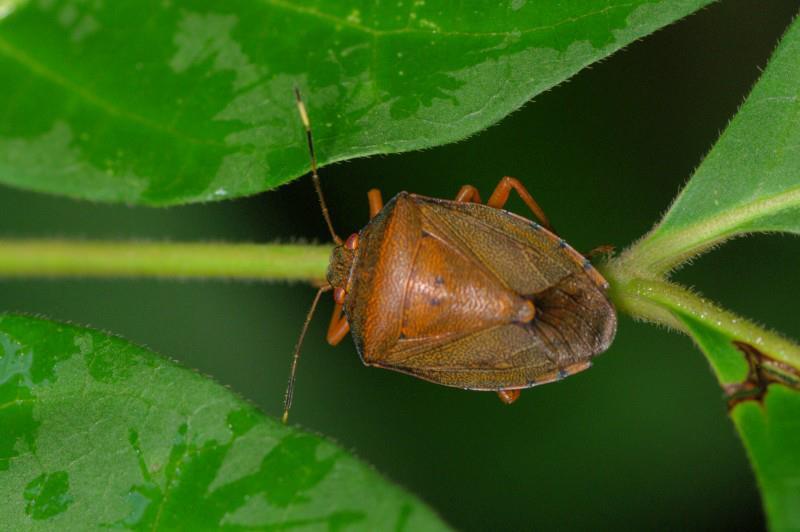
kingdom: Animalia
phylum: Arthropoda
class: Insecta
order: Hemiptera
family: Pentatomidae
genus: Paterculus
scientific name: Paterculus
